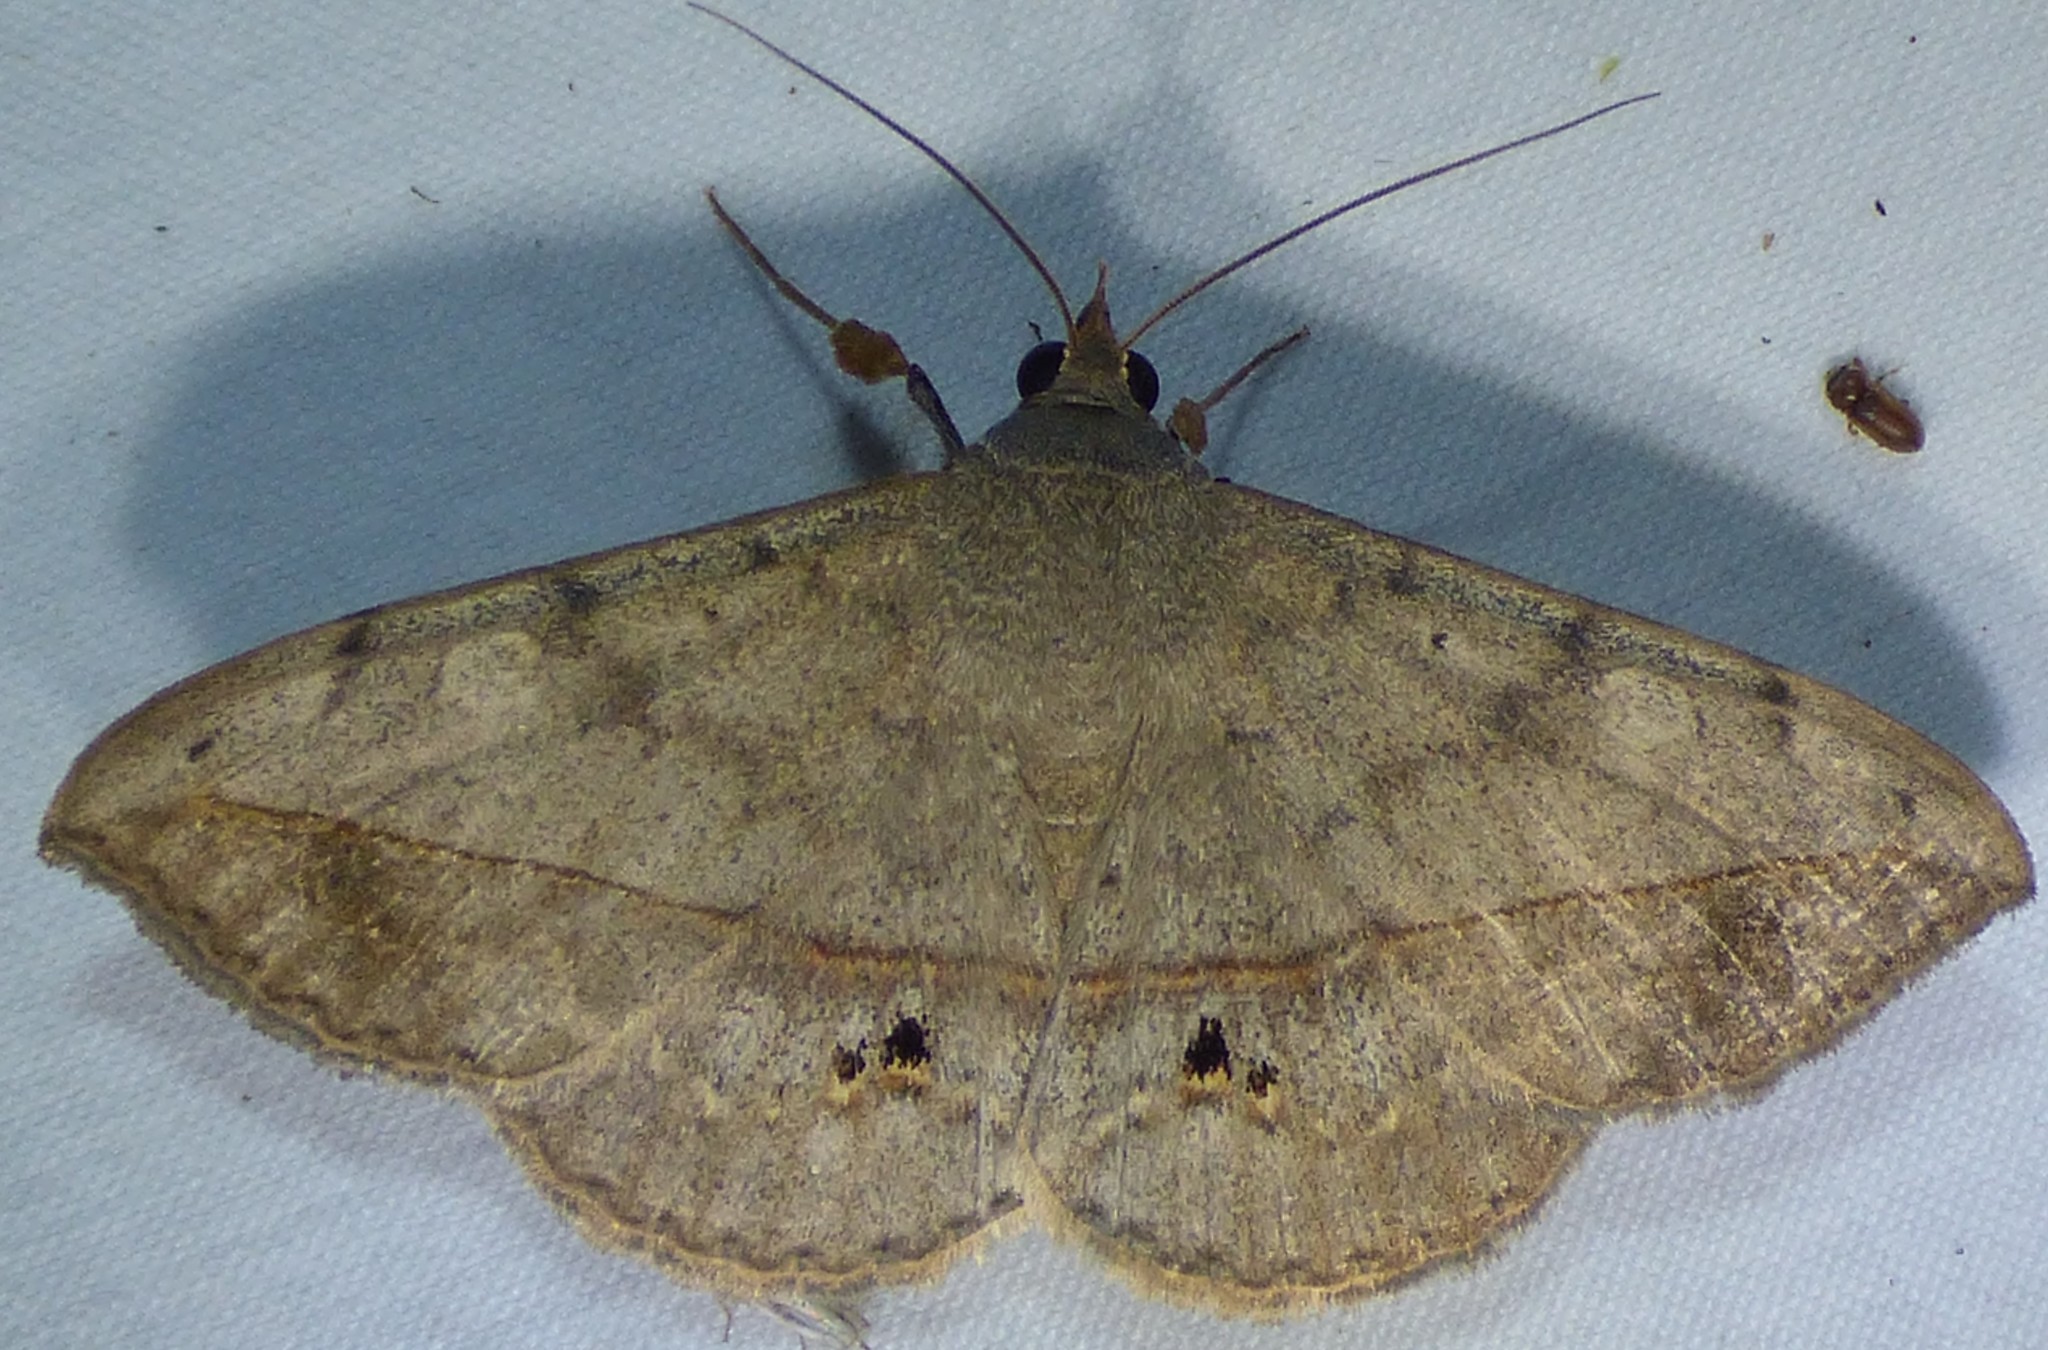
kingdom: Animalia
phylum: Arthropoda
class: Insecta
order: Lepidoptera
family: Erebidae
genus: Anticarsia
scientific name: Anticarsia gemmatalis
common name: Cutworm moth
